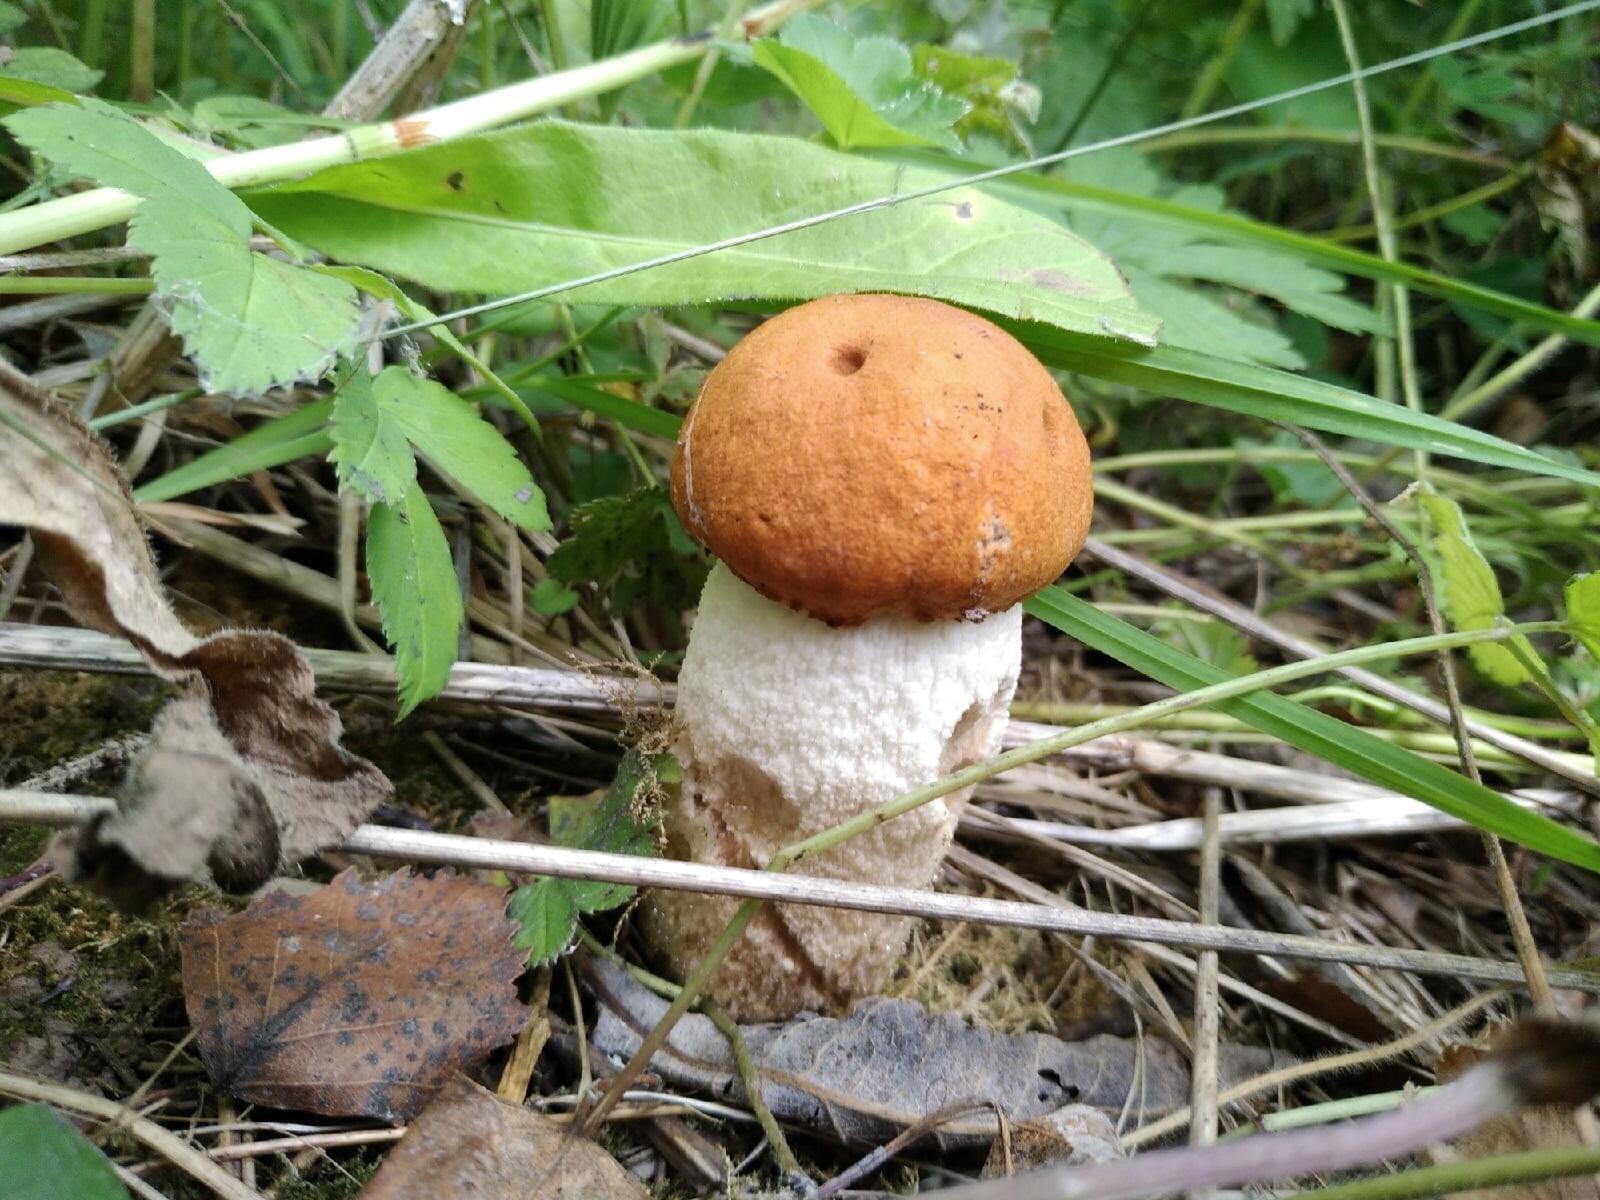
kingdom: Fungi
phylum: Basidiomycota
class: Agaricomycetes
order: Boletales
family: Boletaceae
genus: Leccinum
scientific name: Leccinum albostipitatum
